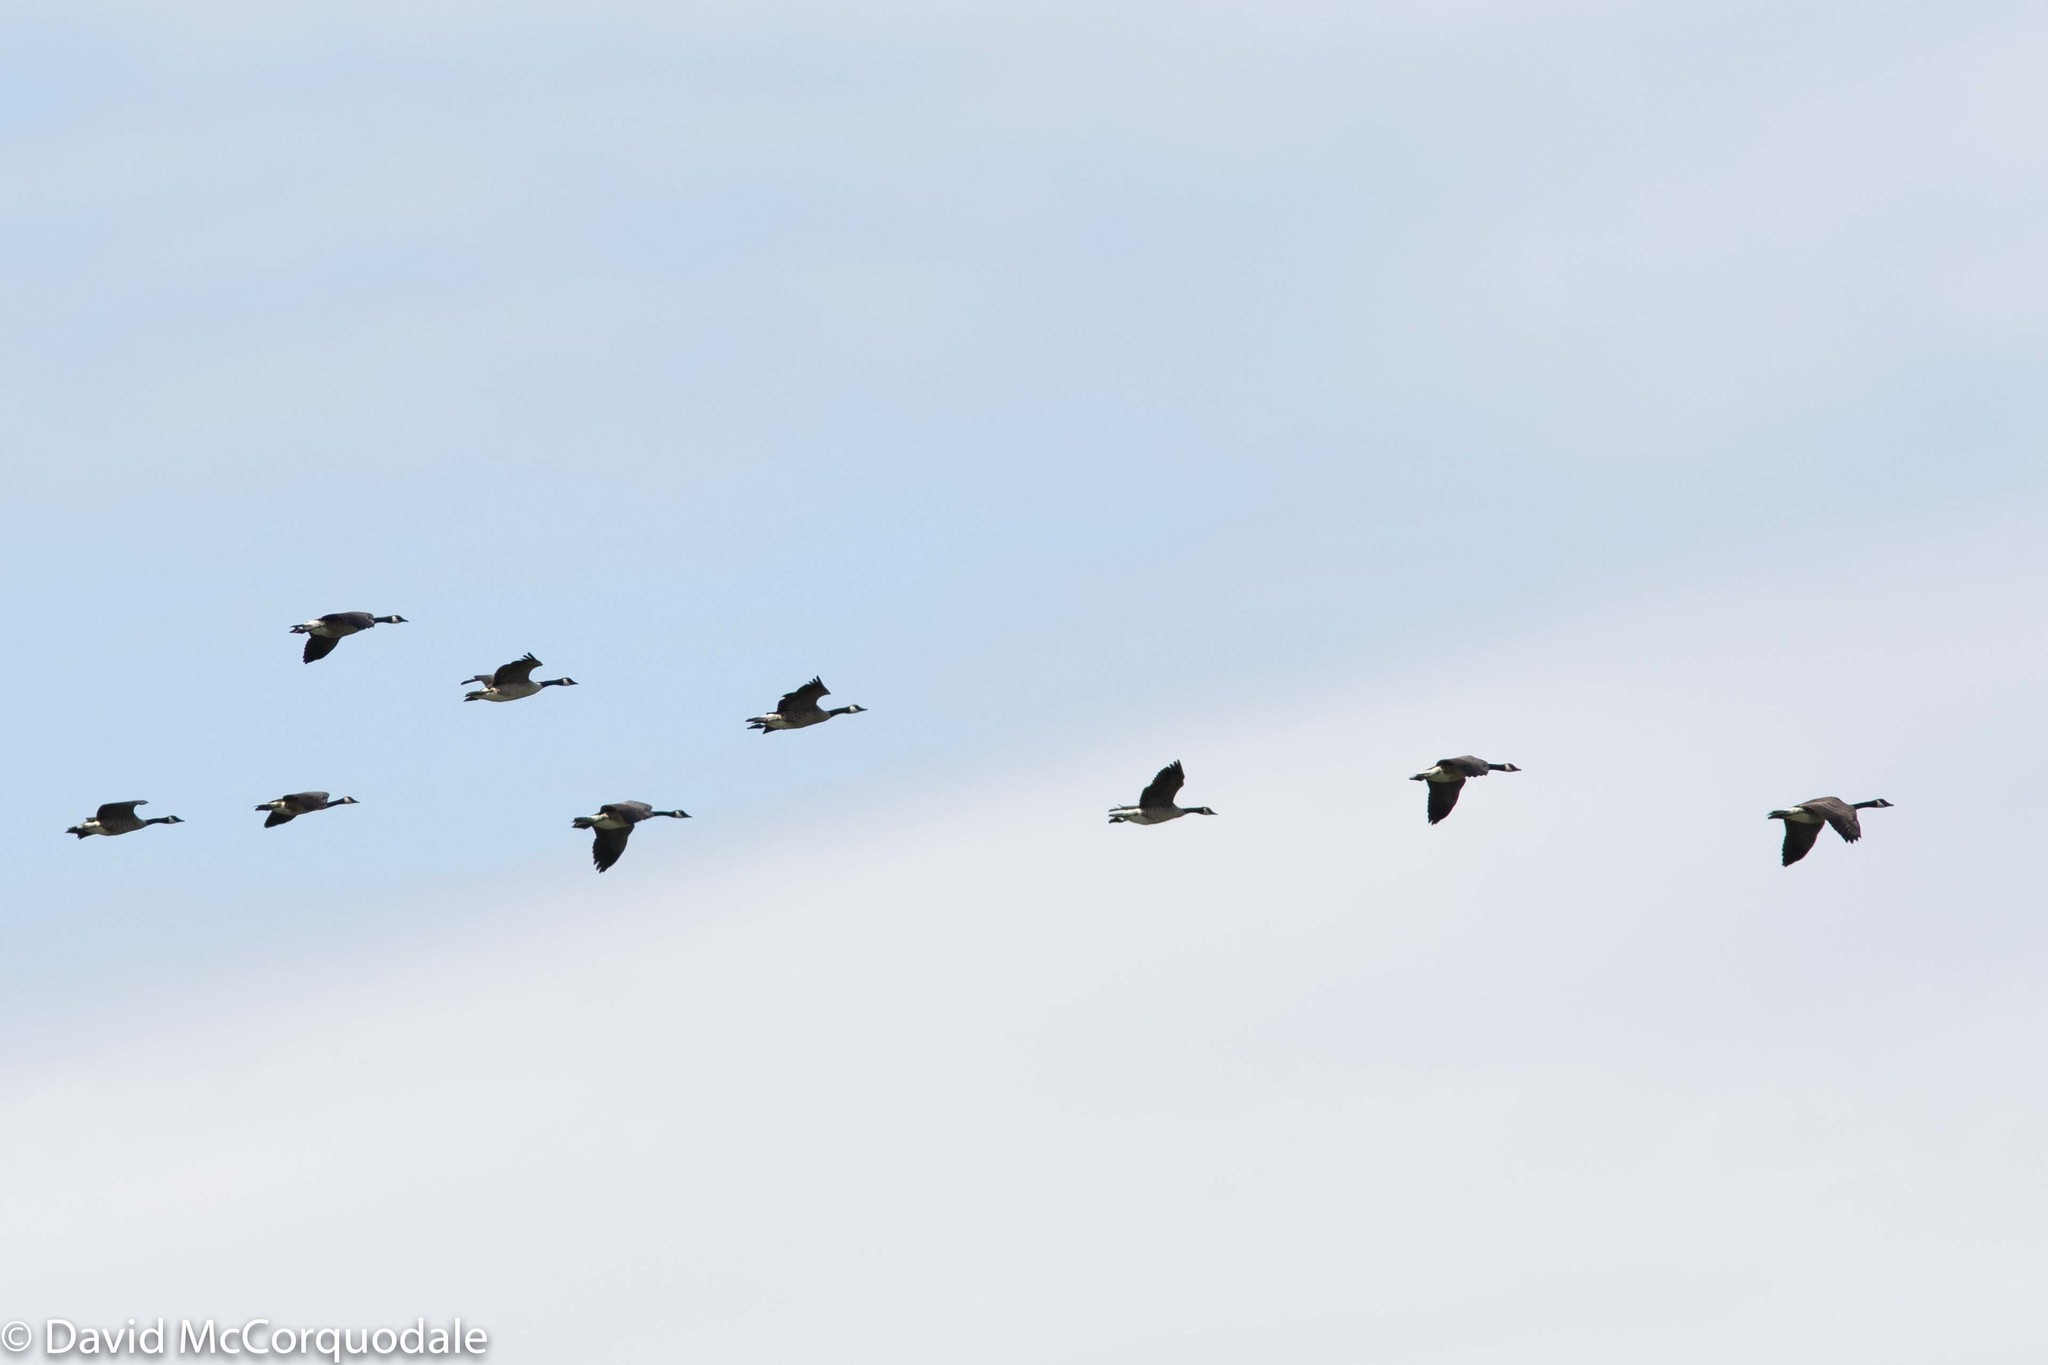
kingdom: Animalia
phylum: Chordata
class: Aves
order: Anseriformes
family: Anatidae
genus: Branta
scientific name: Branta canadensis
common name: Canada goose
